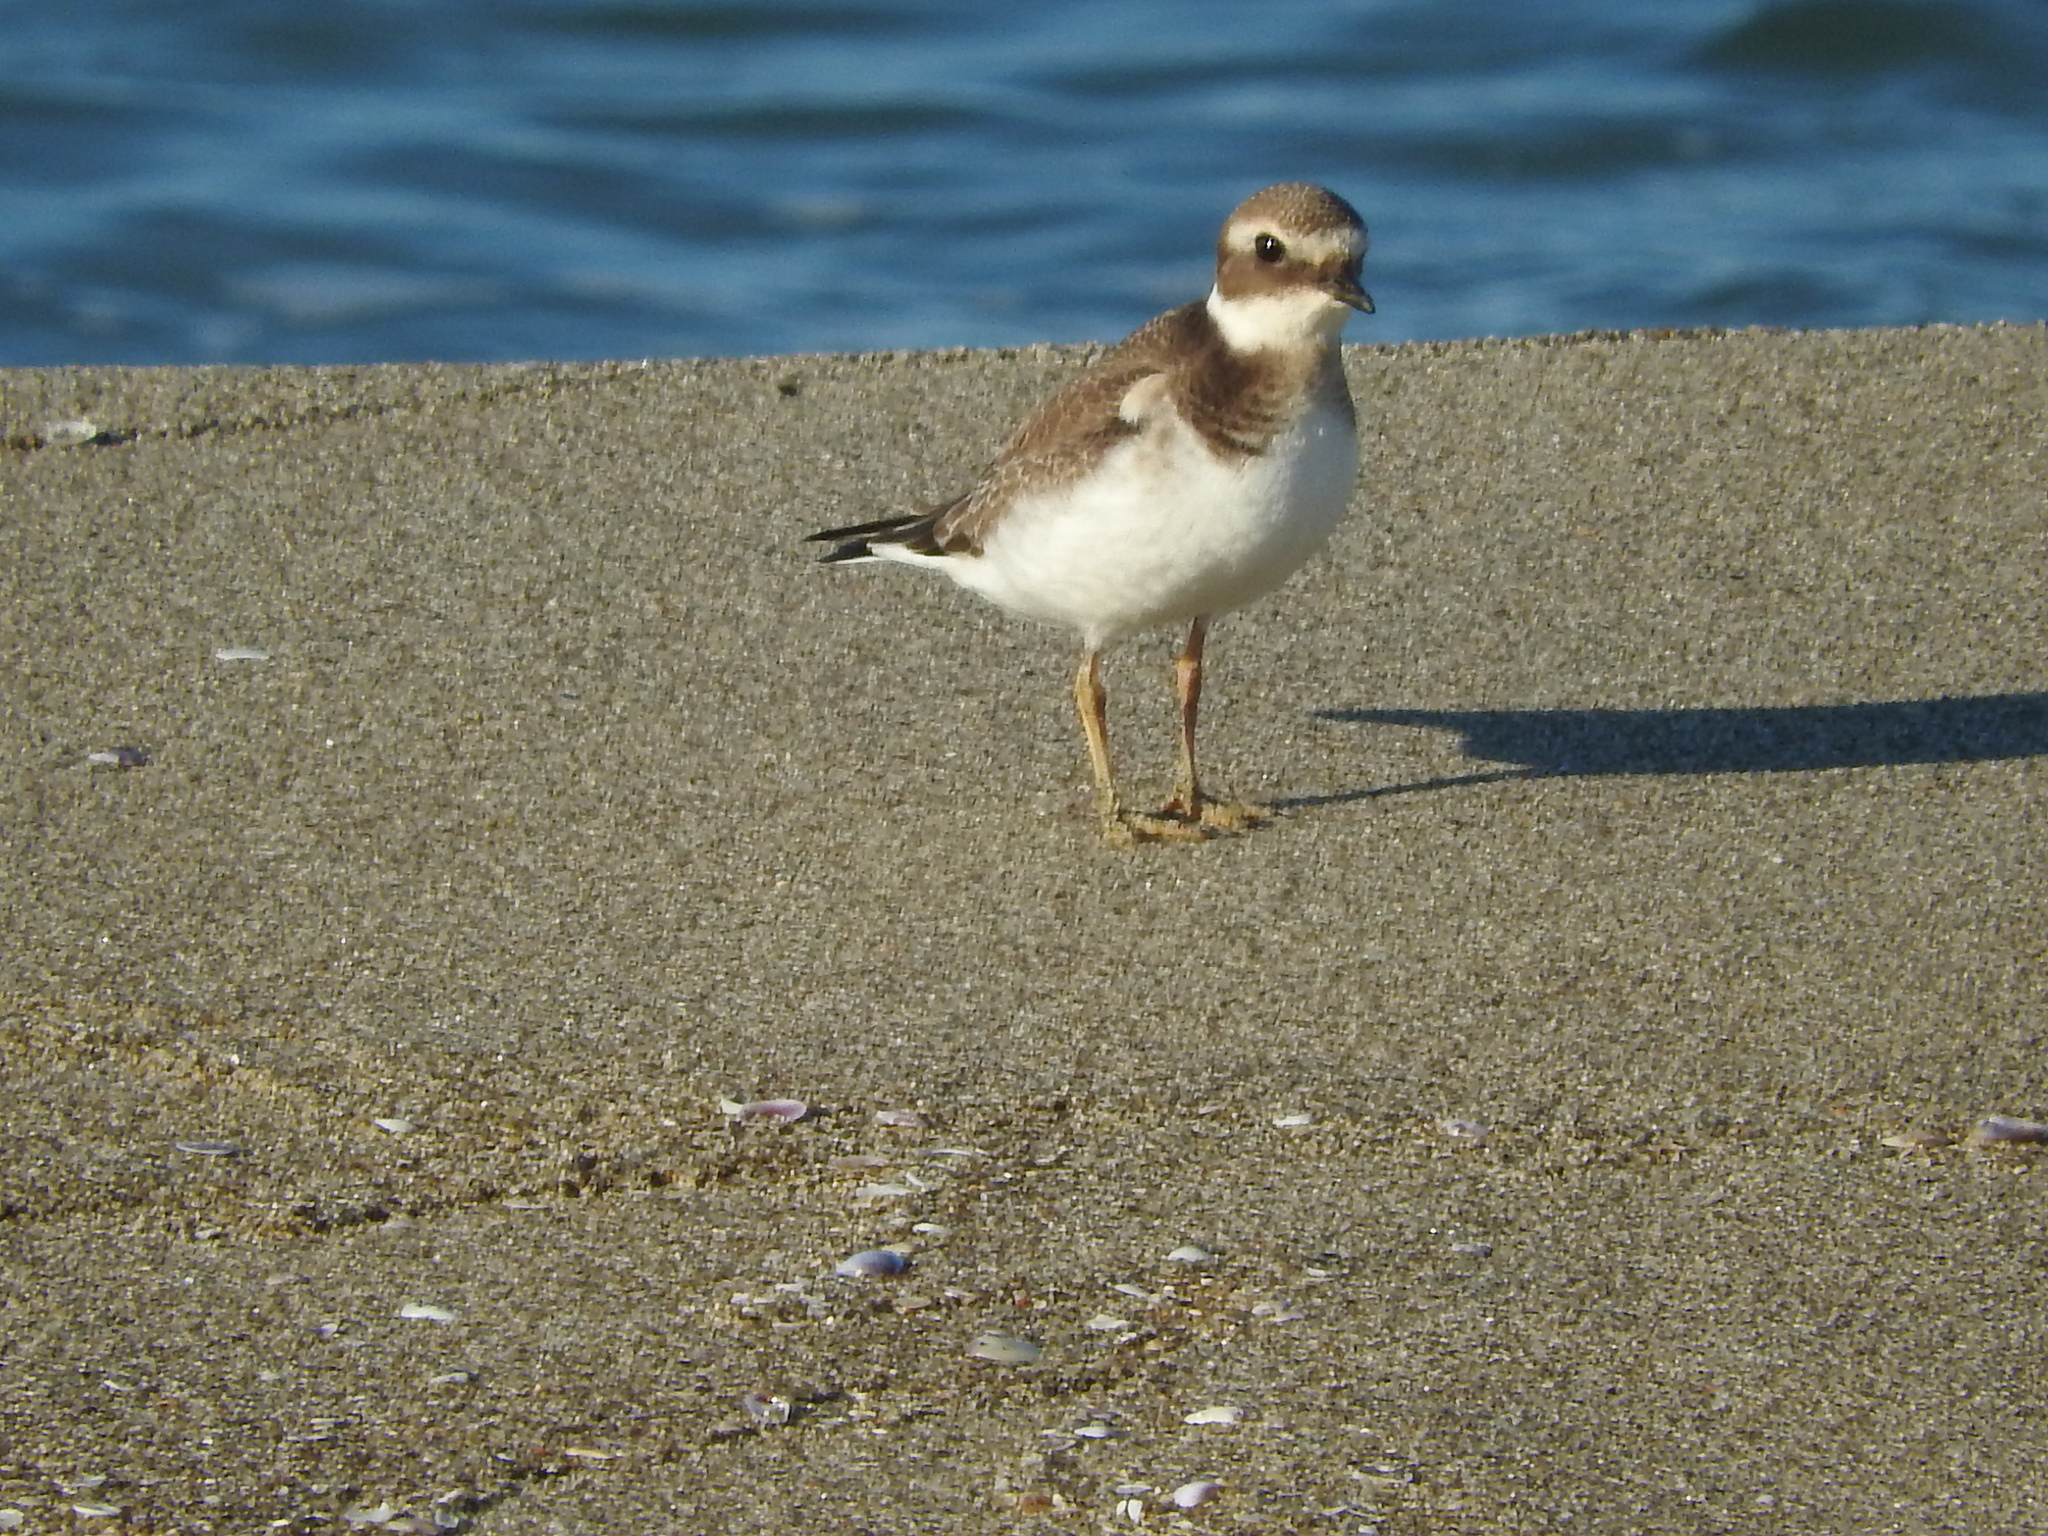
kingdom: Animalia
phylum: Chordata
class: Aves
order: Charadriiformes
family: Charadriidae
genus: Charadrius
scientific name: Charadrius hiaticula
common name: Common ringed plover
